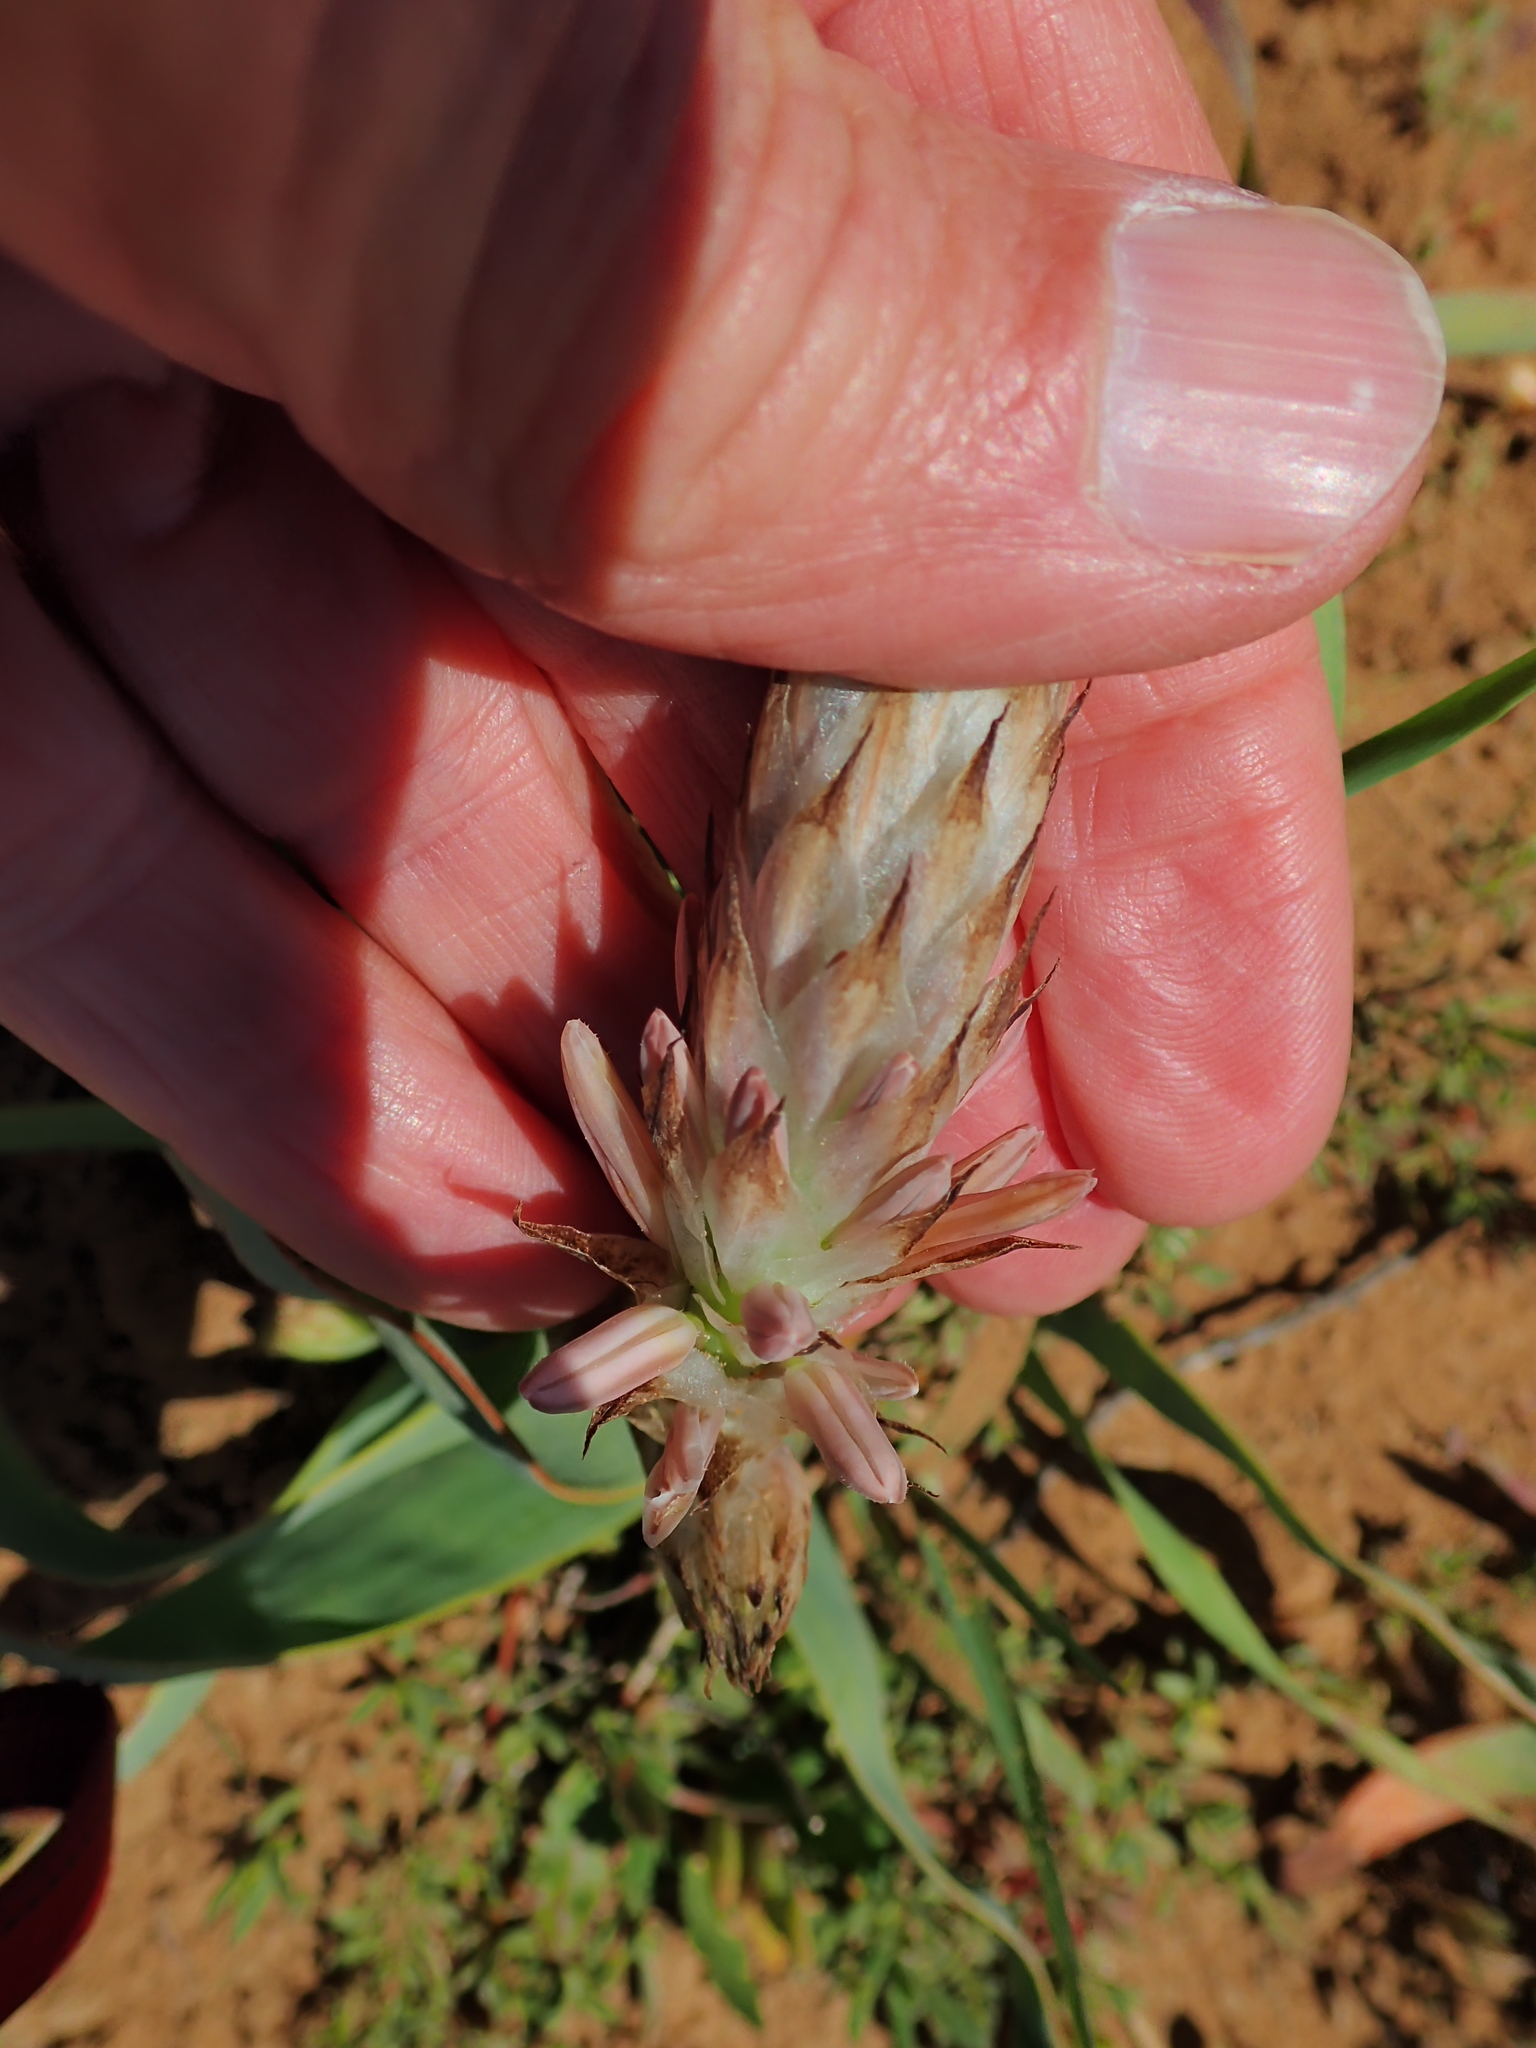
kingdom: Plantae
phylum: Tracheophyta
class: Liliopsida
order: Asparagales
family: Asphodelaceae
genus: Trachyandra
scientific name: Trachyandra falcata
